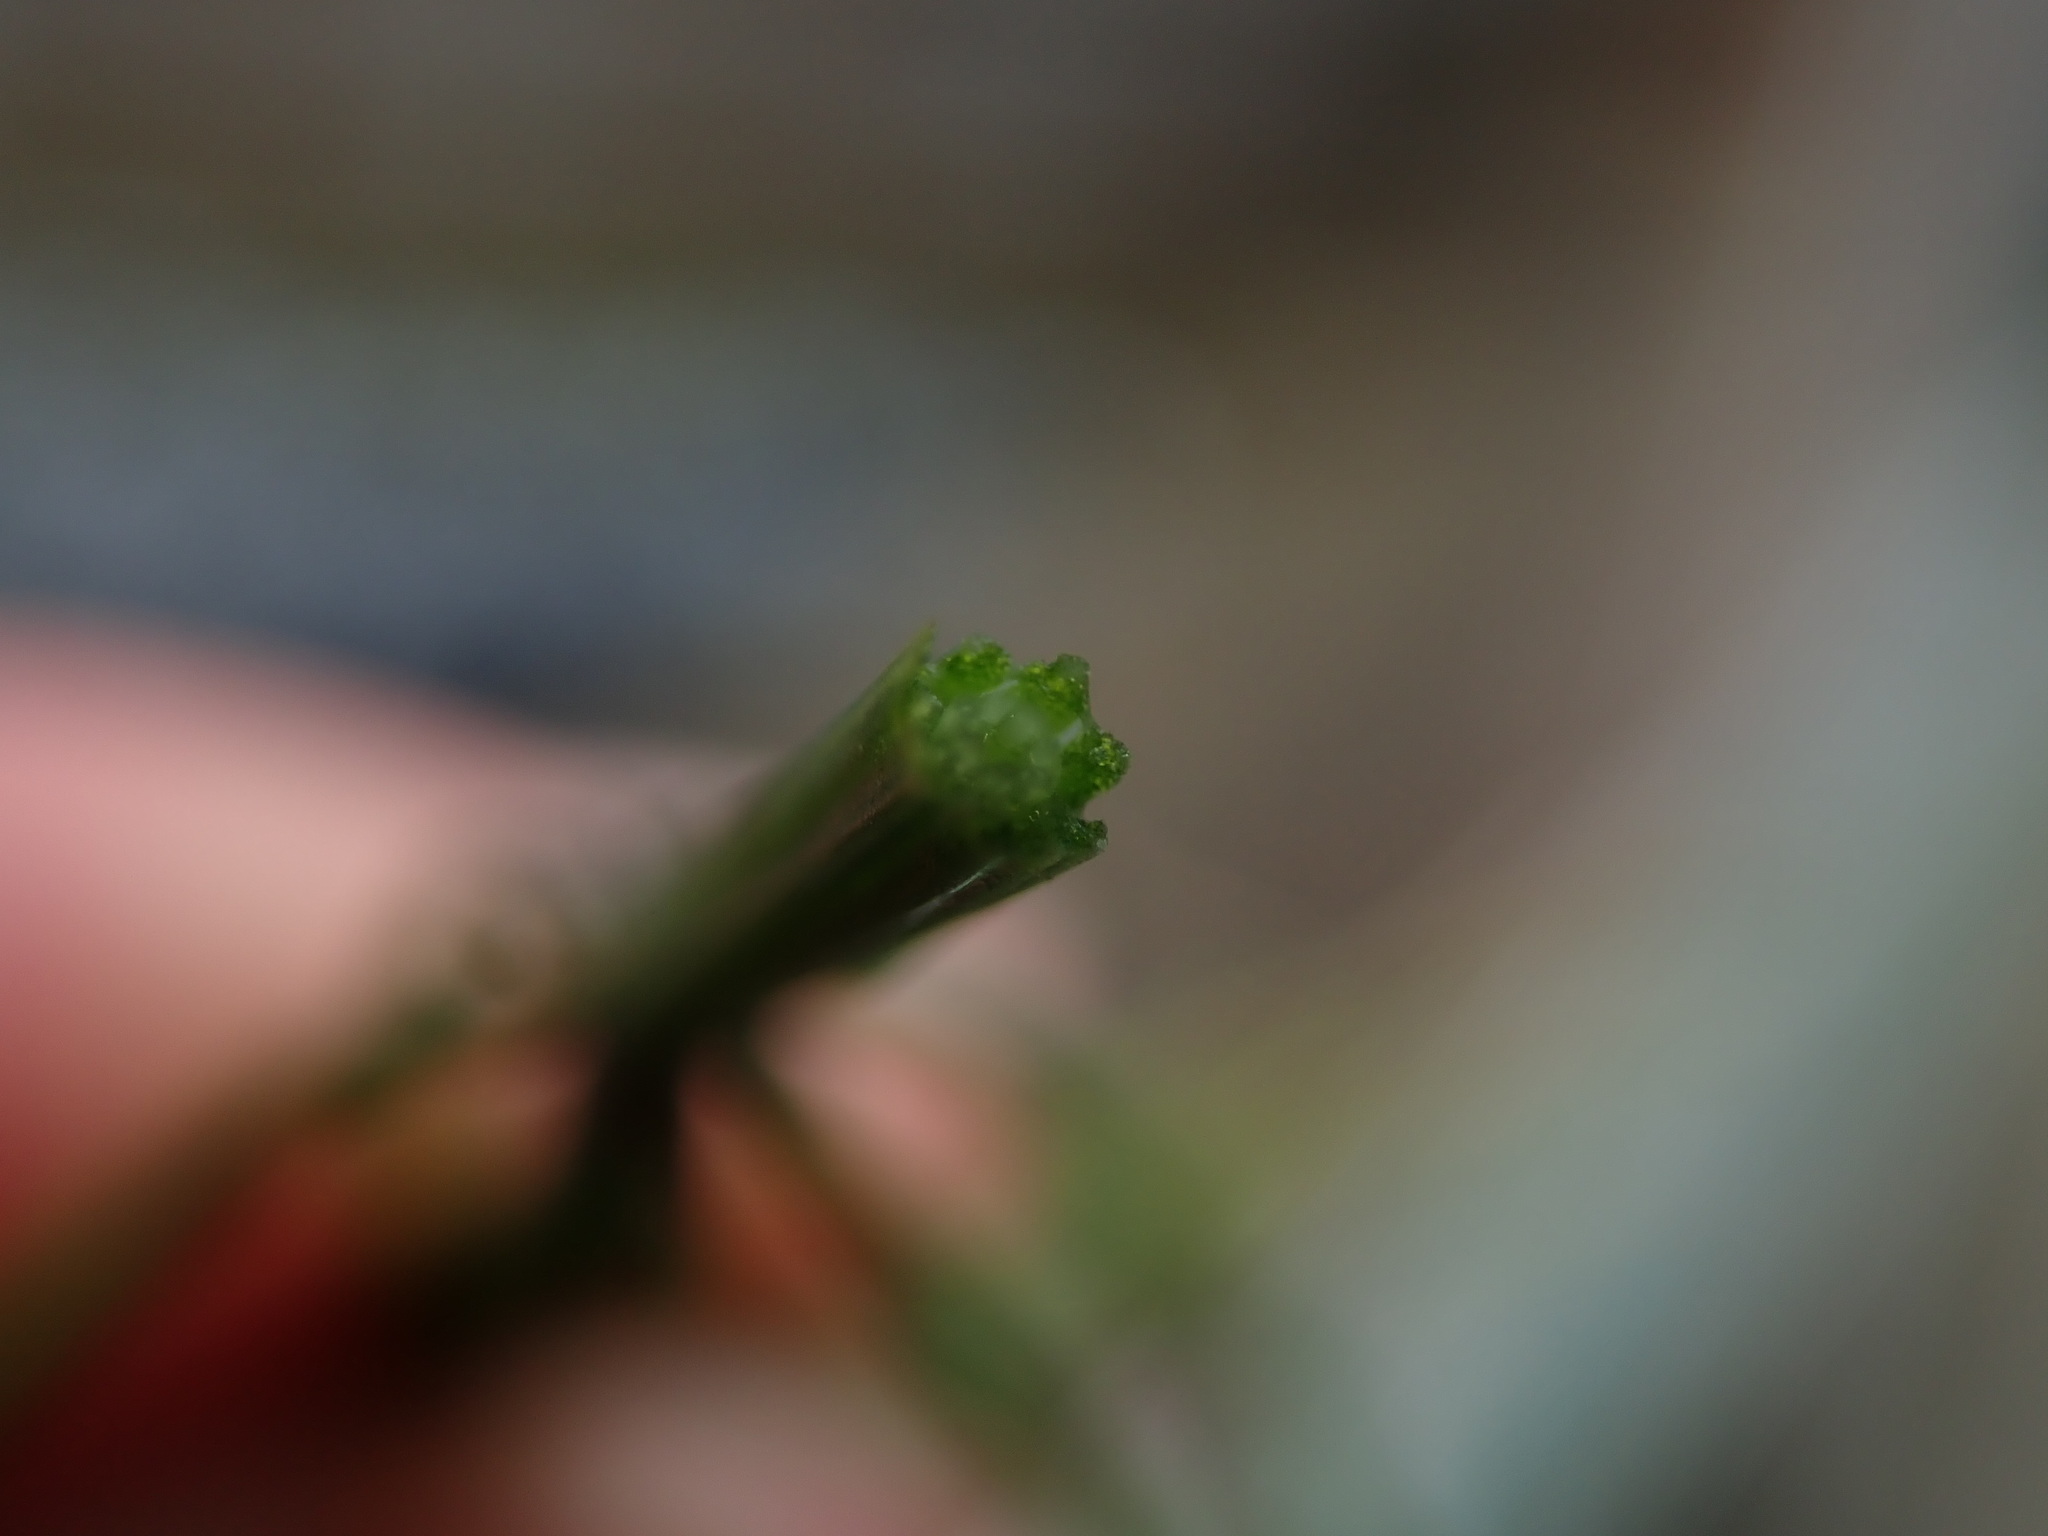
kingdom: Plantae
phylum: Tracheophyta
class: Polypodiopsida
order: Equisetales
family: Equisetaceae
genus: Equisetum
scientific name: Equisetum arvense
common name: Field horsetail
